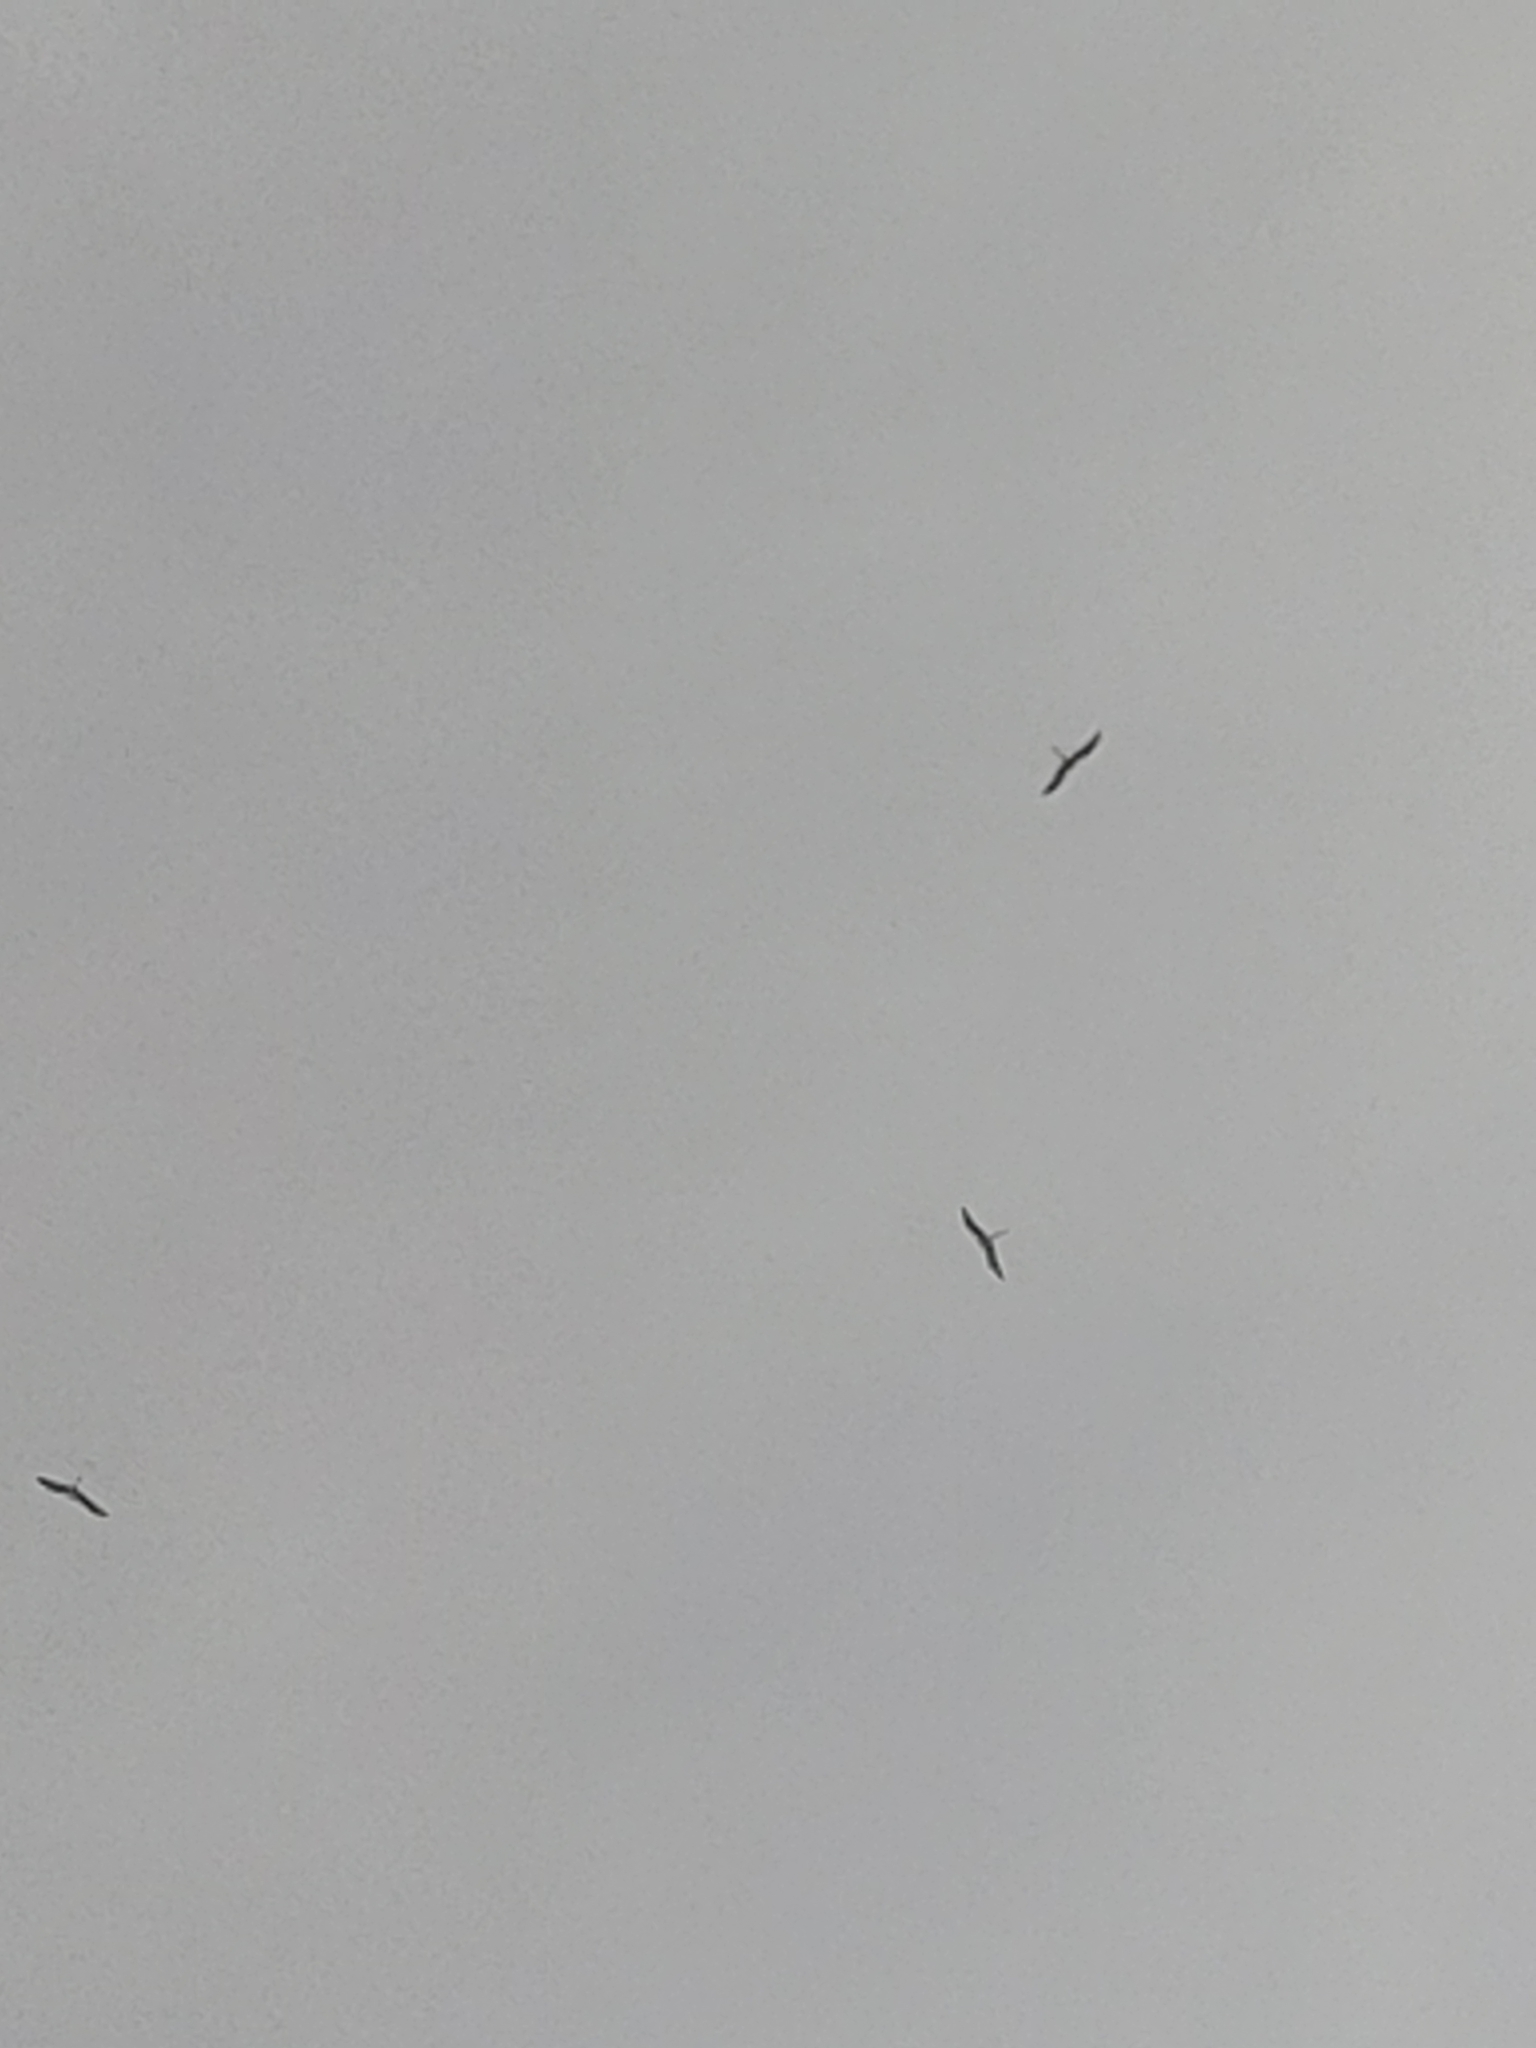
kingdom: Animalia
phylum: Chordata
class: Aves
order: Suliformes
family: Fregatidae
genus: Fregata
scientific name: Fregata magnificens
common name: Magnificent frigatebird
